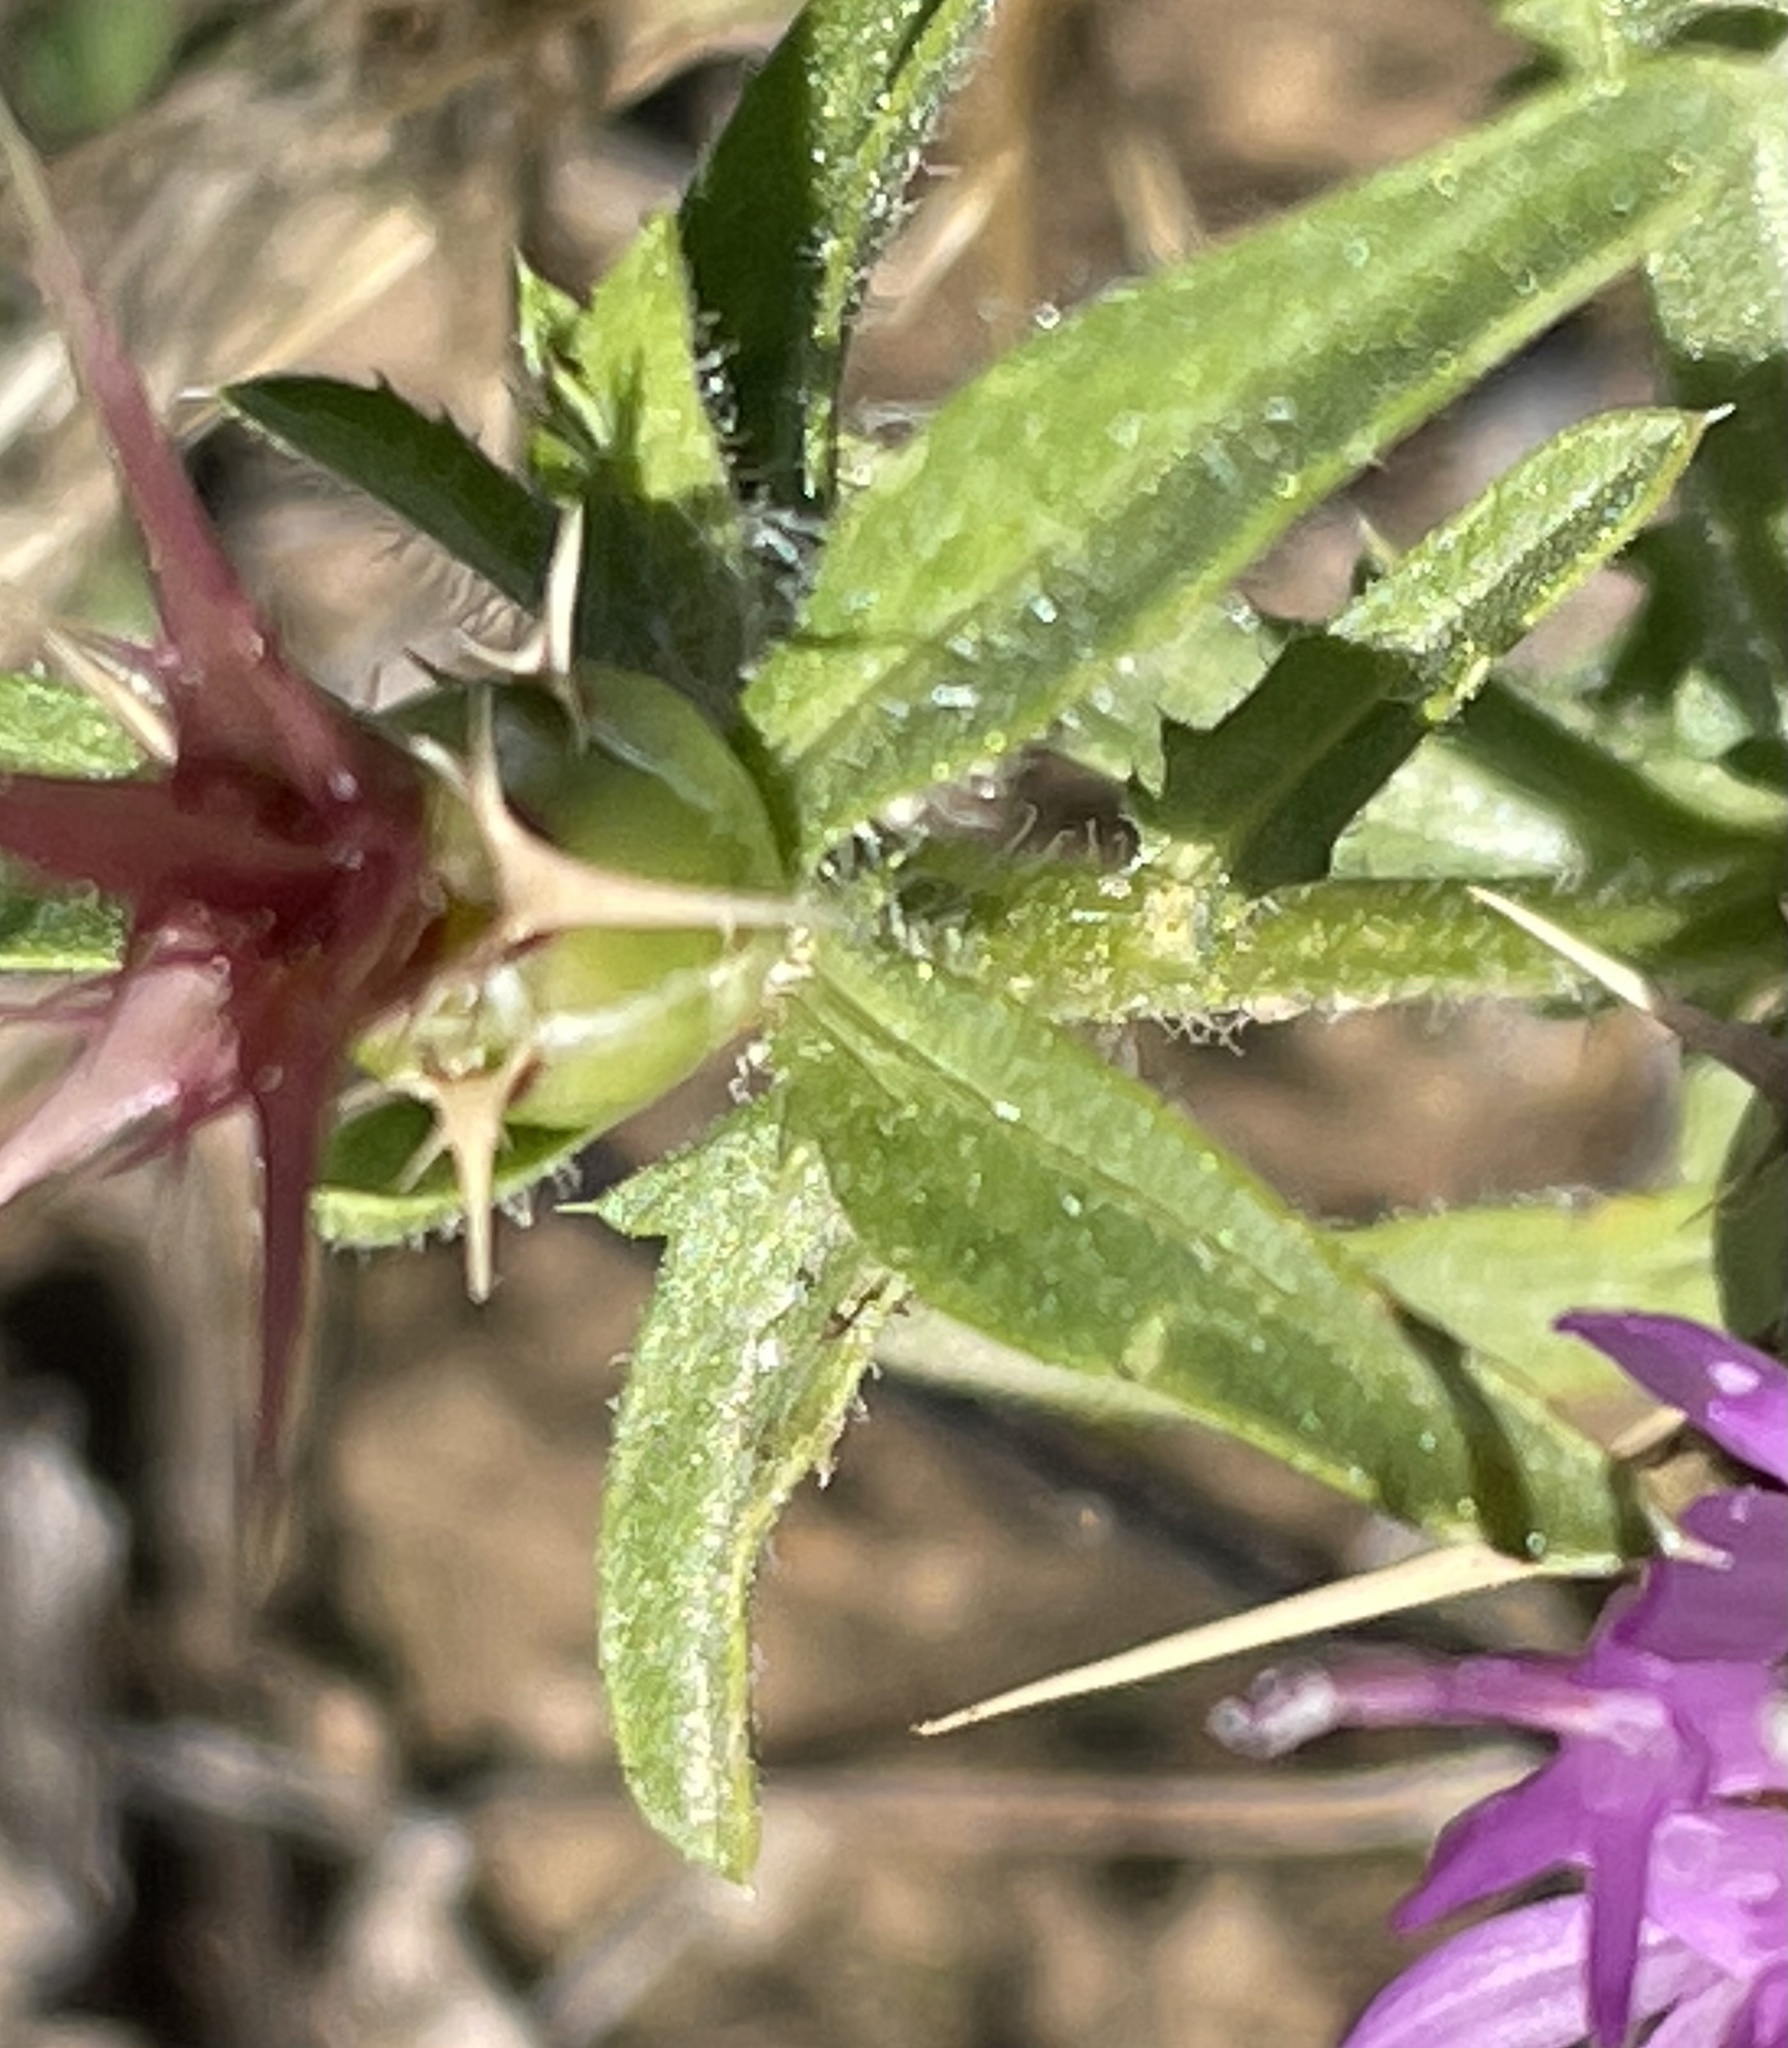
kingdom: Plantae
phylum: Tracheophyta
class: Magnoliopsida
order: Asterales
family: Asteraceae
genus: Centaurea
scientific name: Centaurea calcitrapa
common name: Red star-thistle
